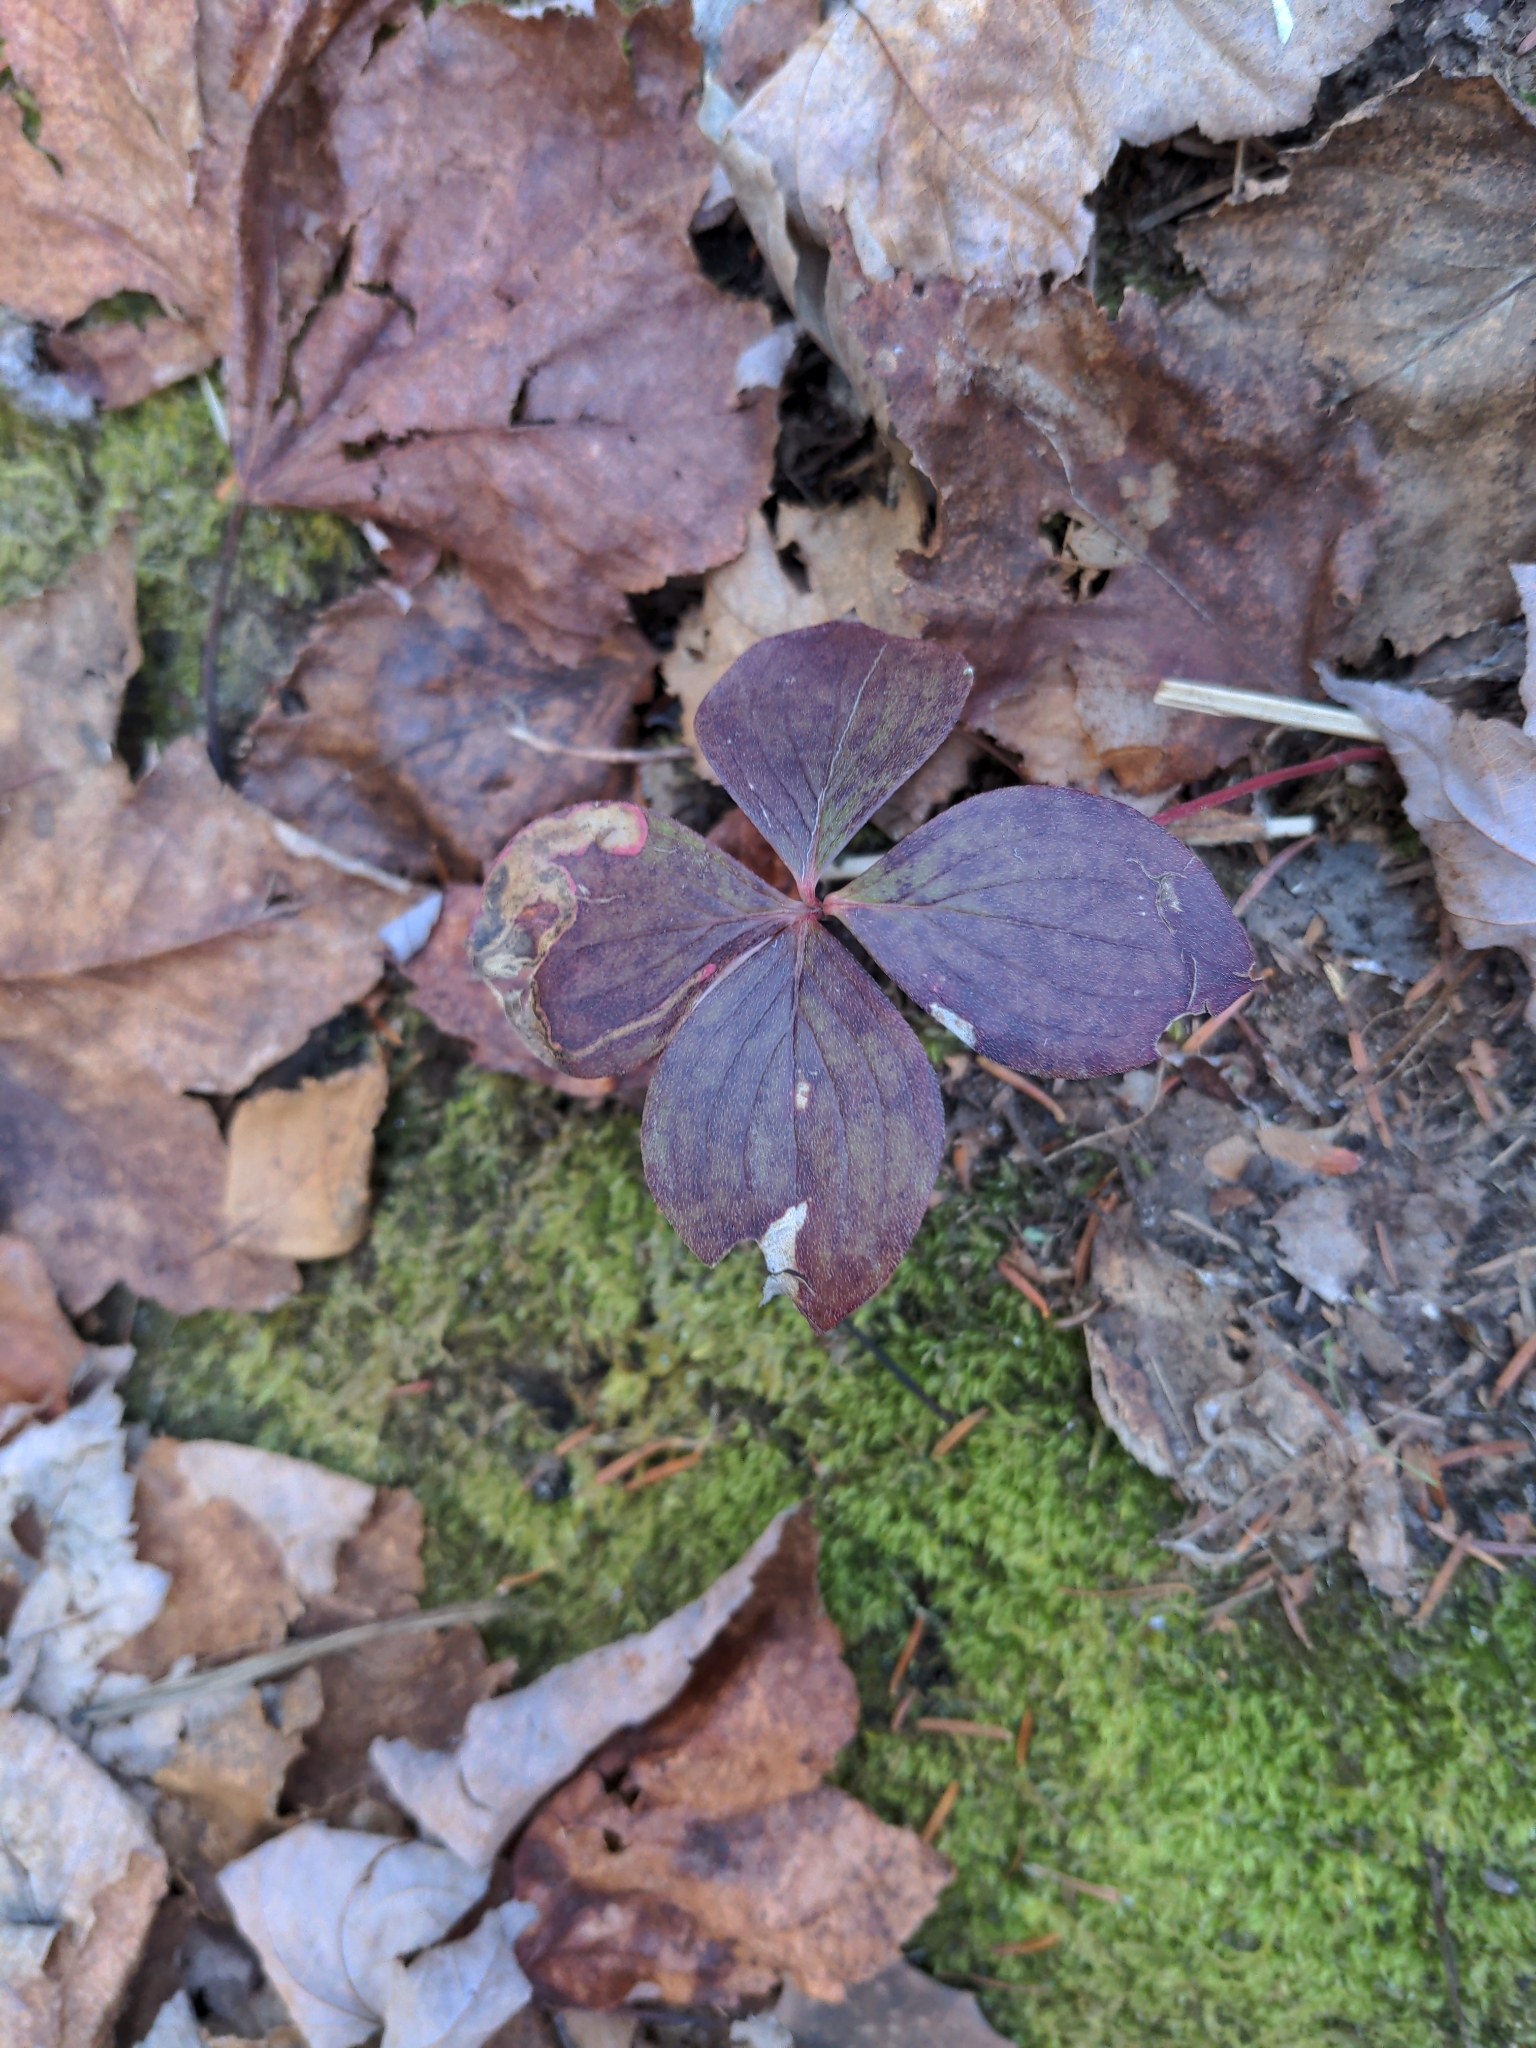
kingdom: Plantae
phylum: Tracheophyta
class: Magnoliopsida
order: Cornales
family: Cornaceae
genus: Cornus
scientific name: Cornus canadensis
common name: Creeping dogwood
